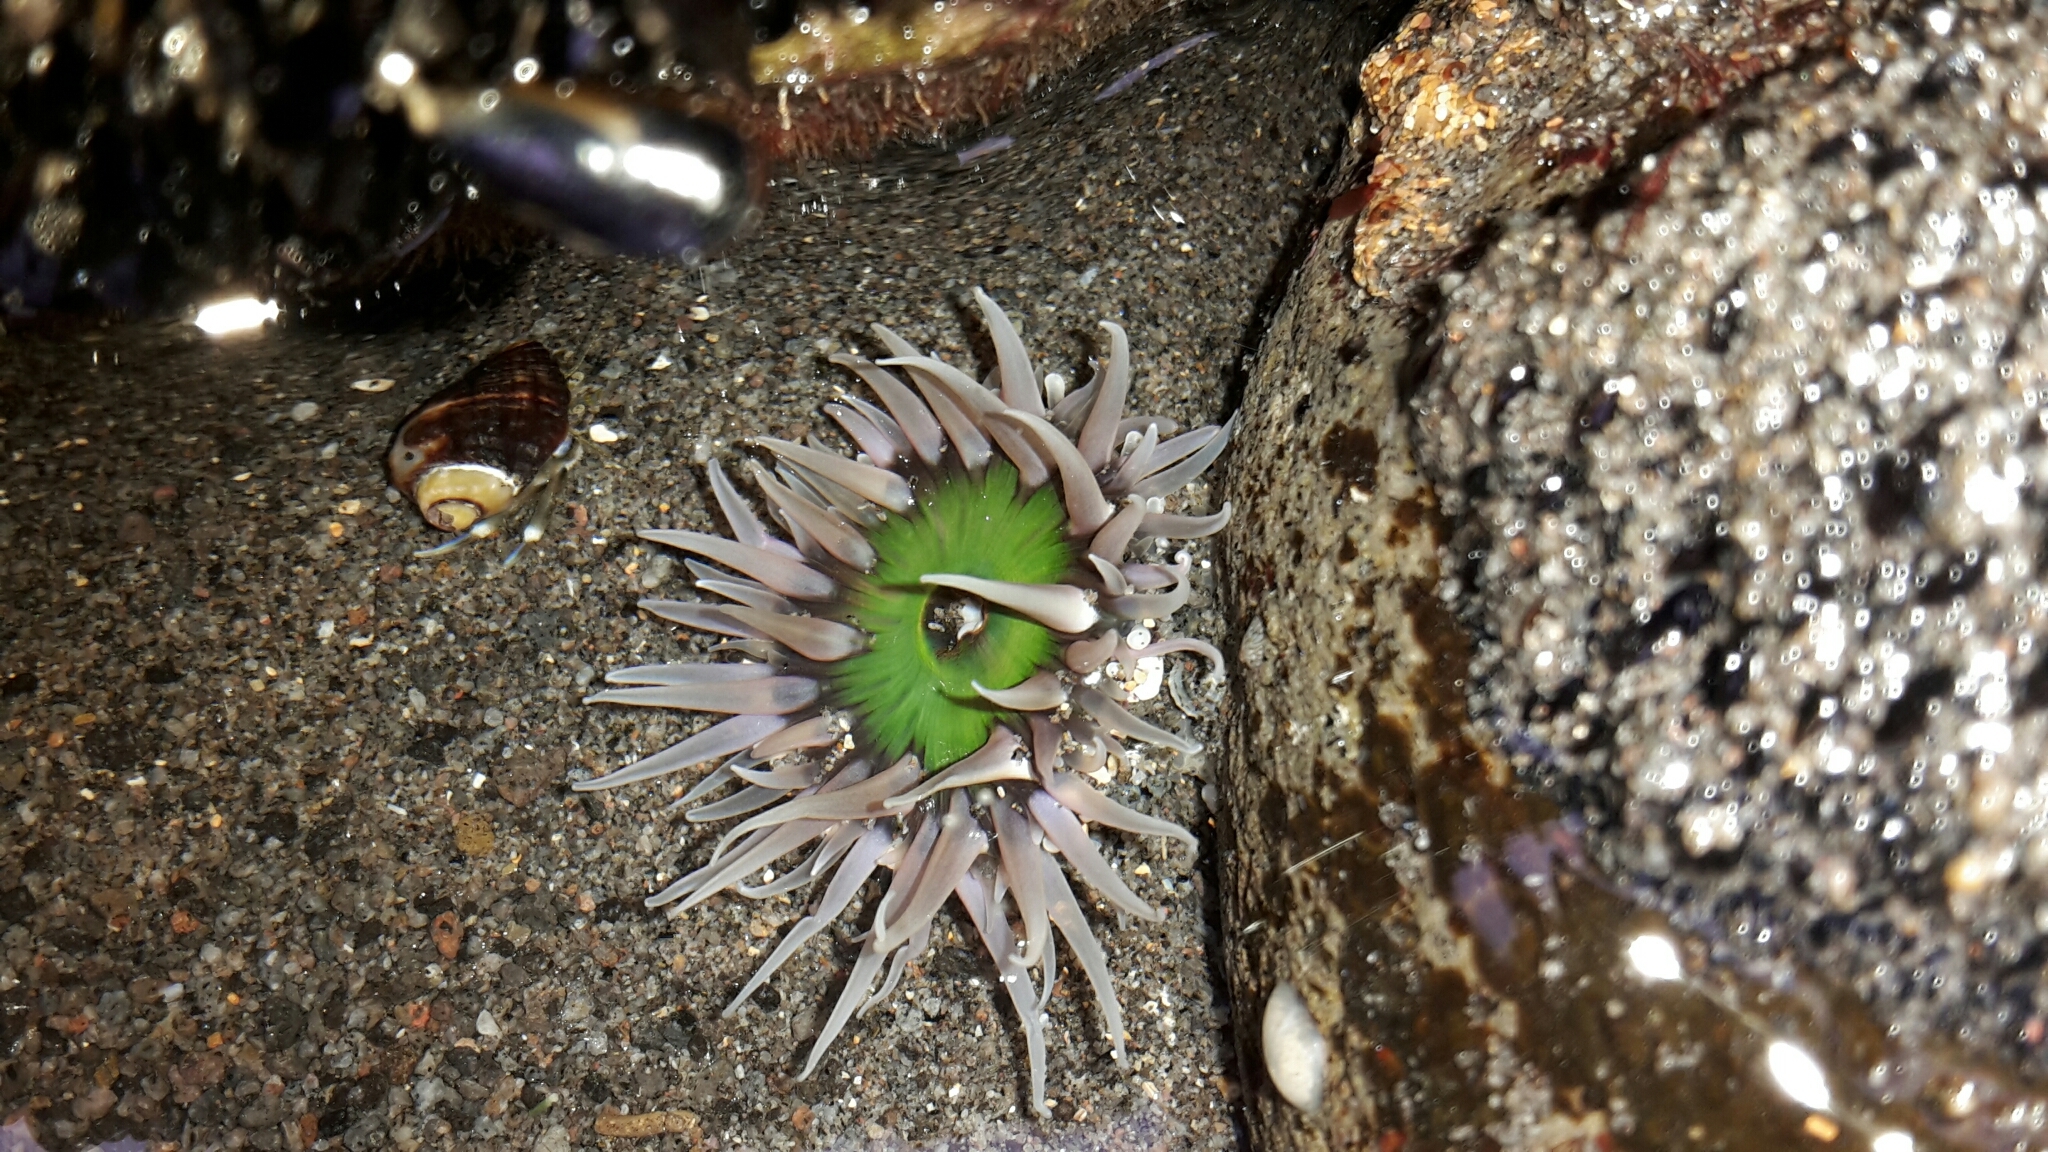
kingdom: Animalia
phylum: Cnidaria
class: Anthozoa
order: Actiniaria
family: Actiniidae
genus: Oulactis
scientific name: Oulactis magna
